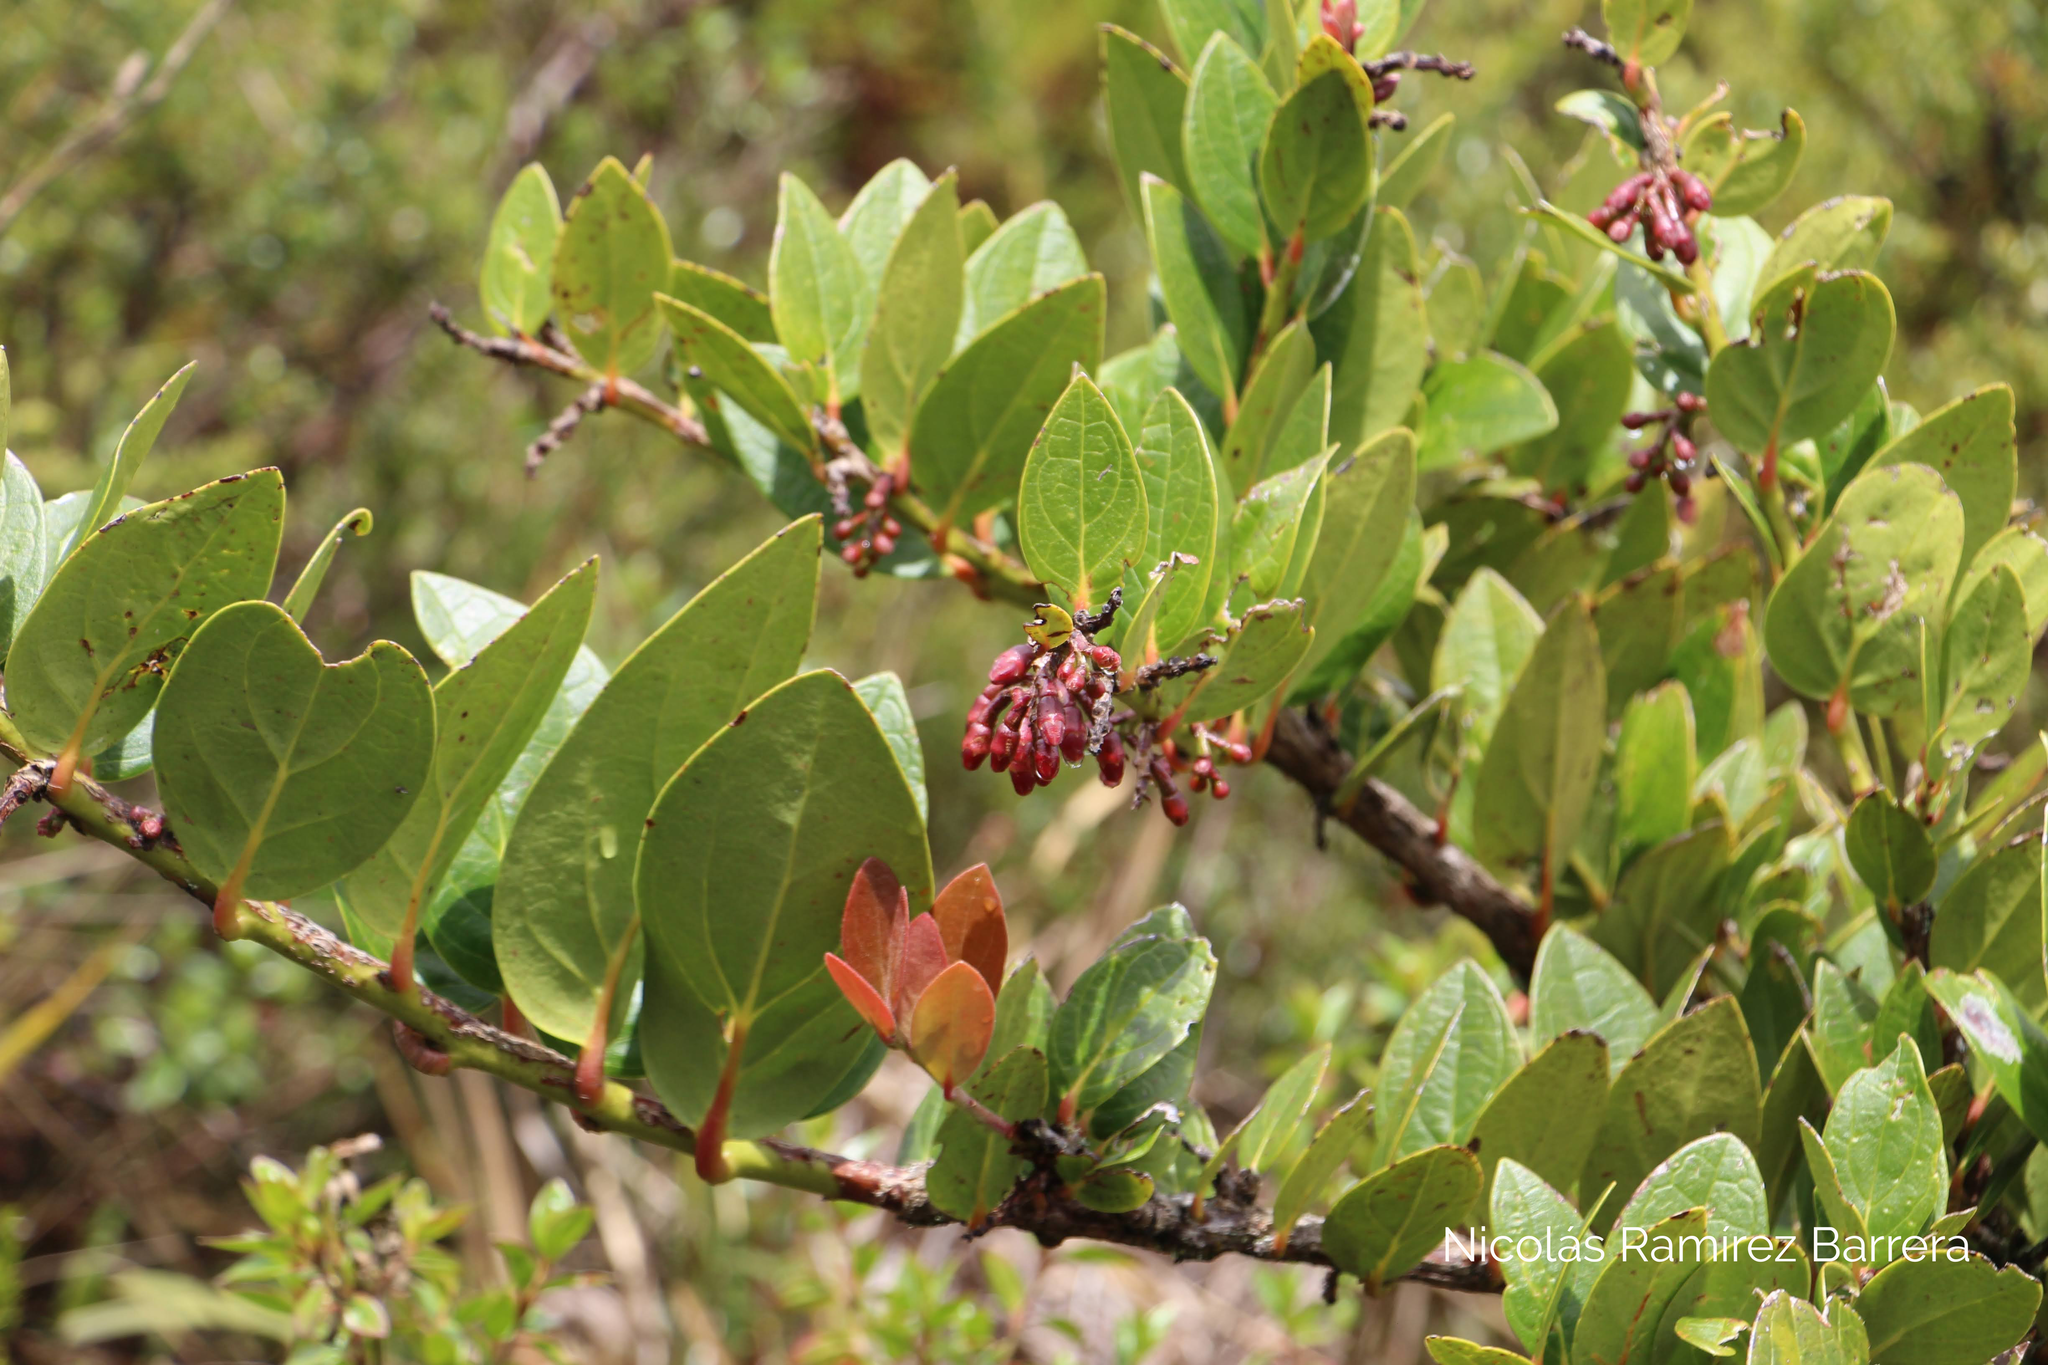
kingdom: Plantae
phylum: Tracheophyta
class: Magnoliopsida
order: Ericales
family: Ericaceae
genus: Macleania
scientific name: Macleania rupestris
